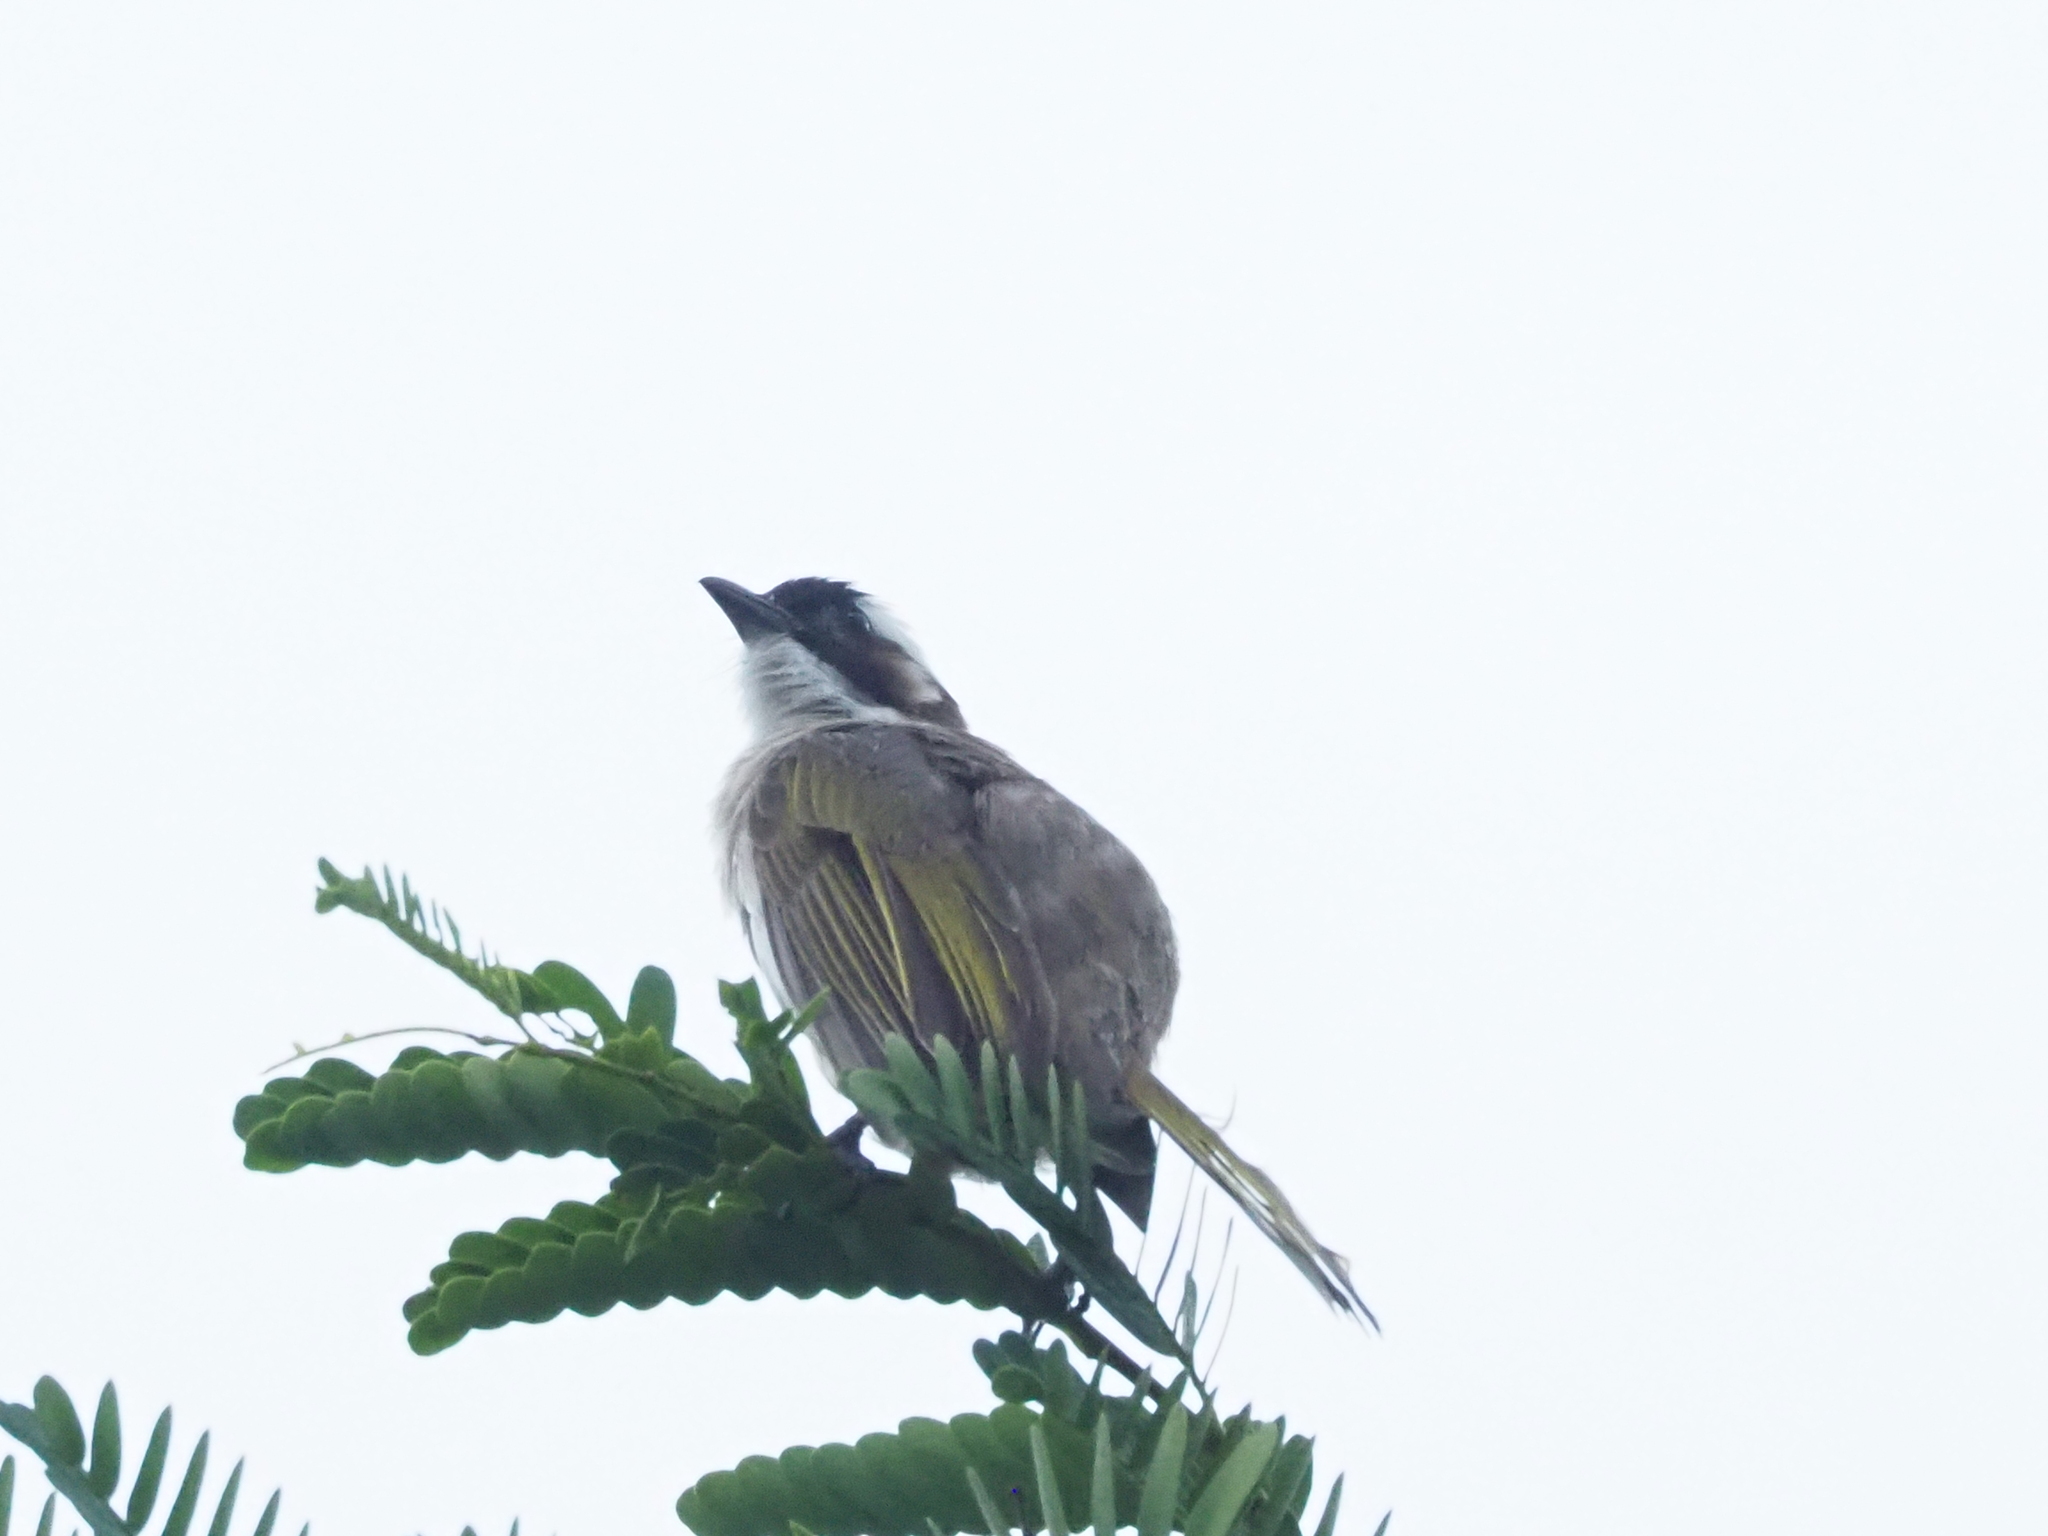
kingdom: Animalia
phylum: Chordata
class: Aves
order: Passeriformes
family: Pycnonotidae
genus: Pycnonotus
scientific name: Pycnonotus sinensis
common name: Light-vented bulbul
